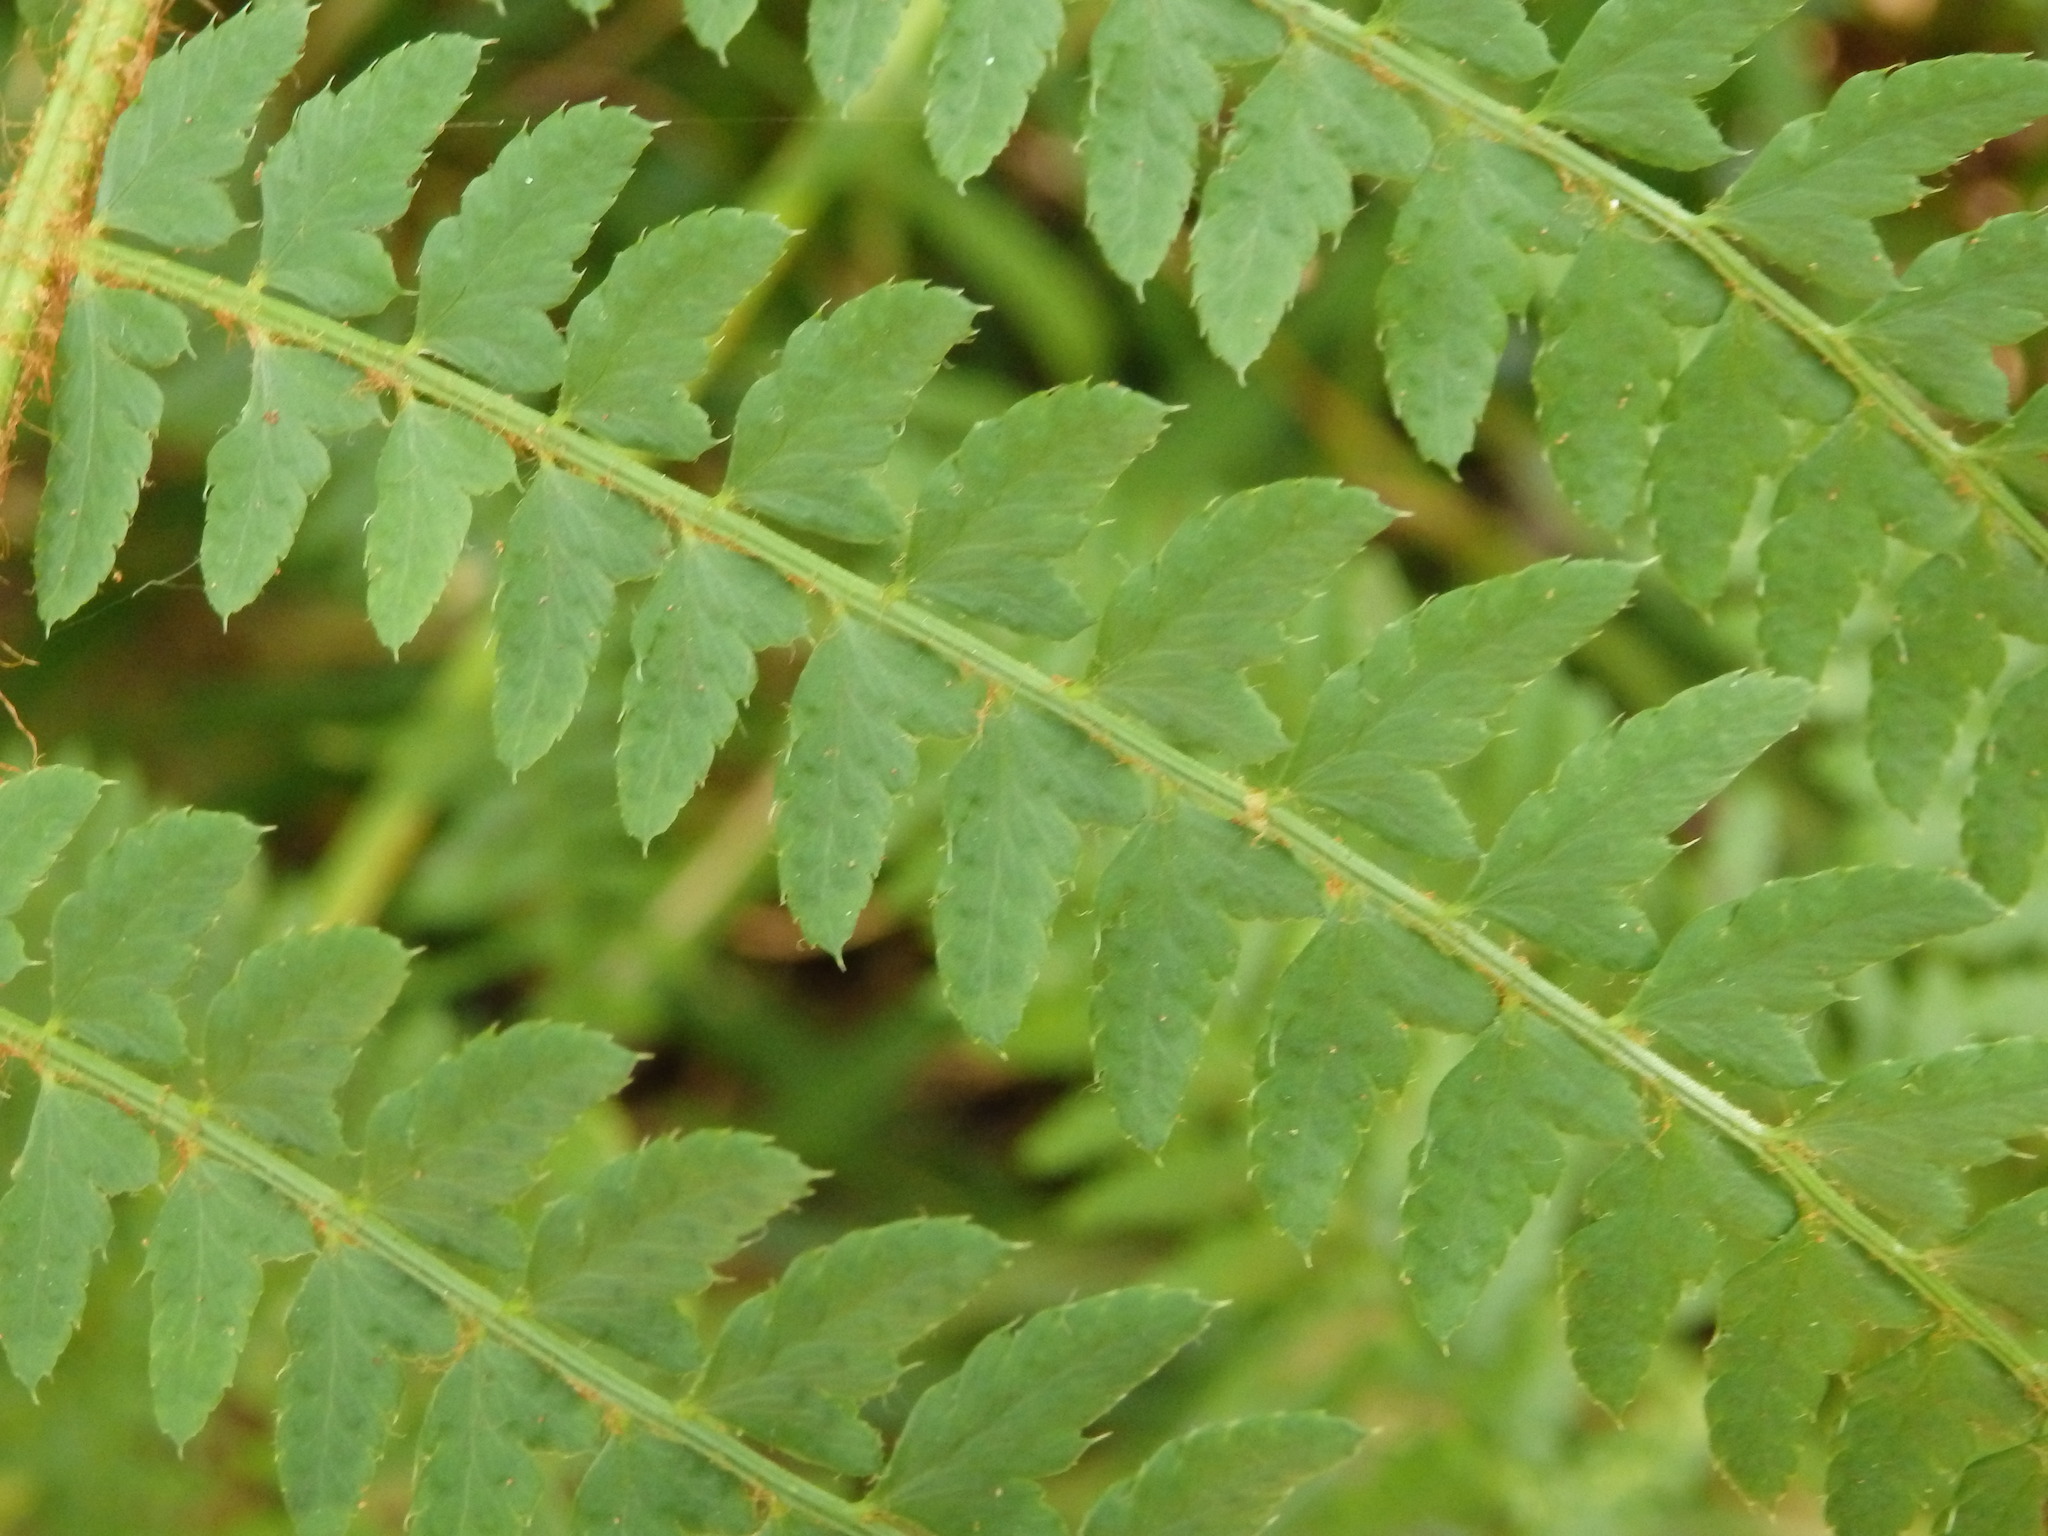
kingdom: Plantae
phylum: Tracheophyta
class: Polypodiopsida
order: Polypodiales
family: Dryopteridaceae
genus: Polystichum
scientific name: Polystichum setiferum
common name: Soft shield-fern
